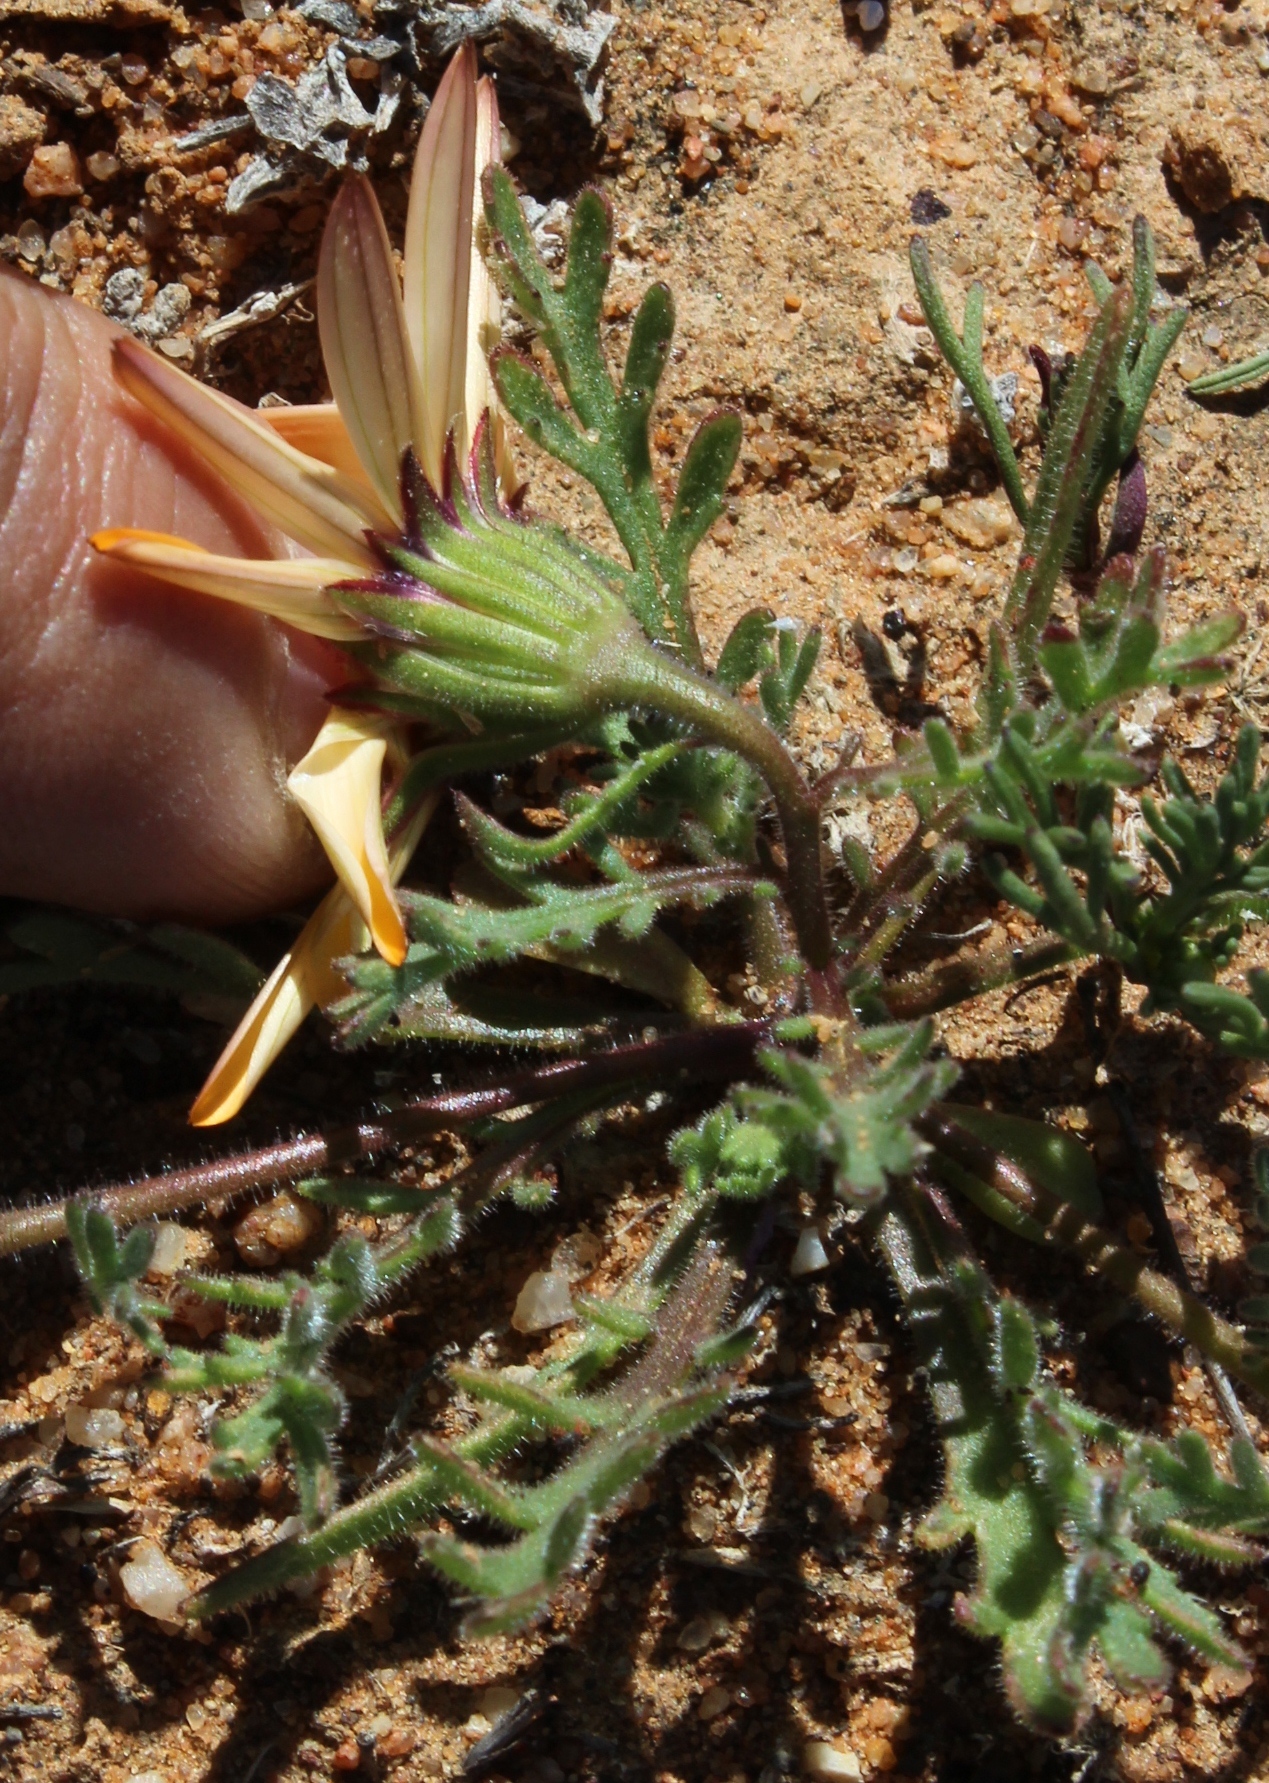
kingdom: Plantae
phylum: Tracheophyta
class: Magnoliopsida
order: Asterales
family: Asteraceae
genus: Dimorphotheca
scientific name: Dimorphotheca pinnata
